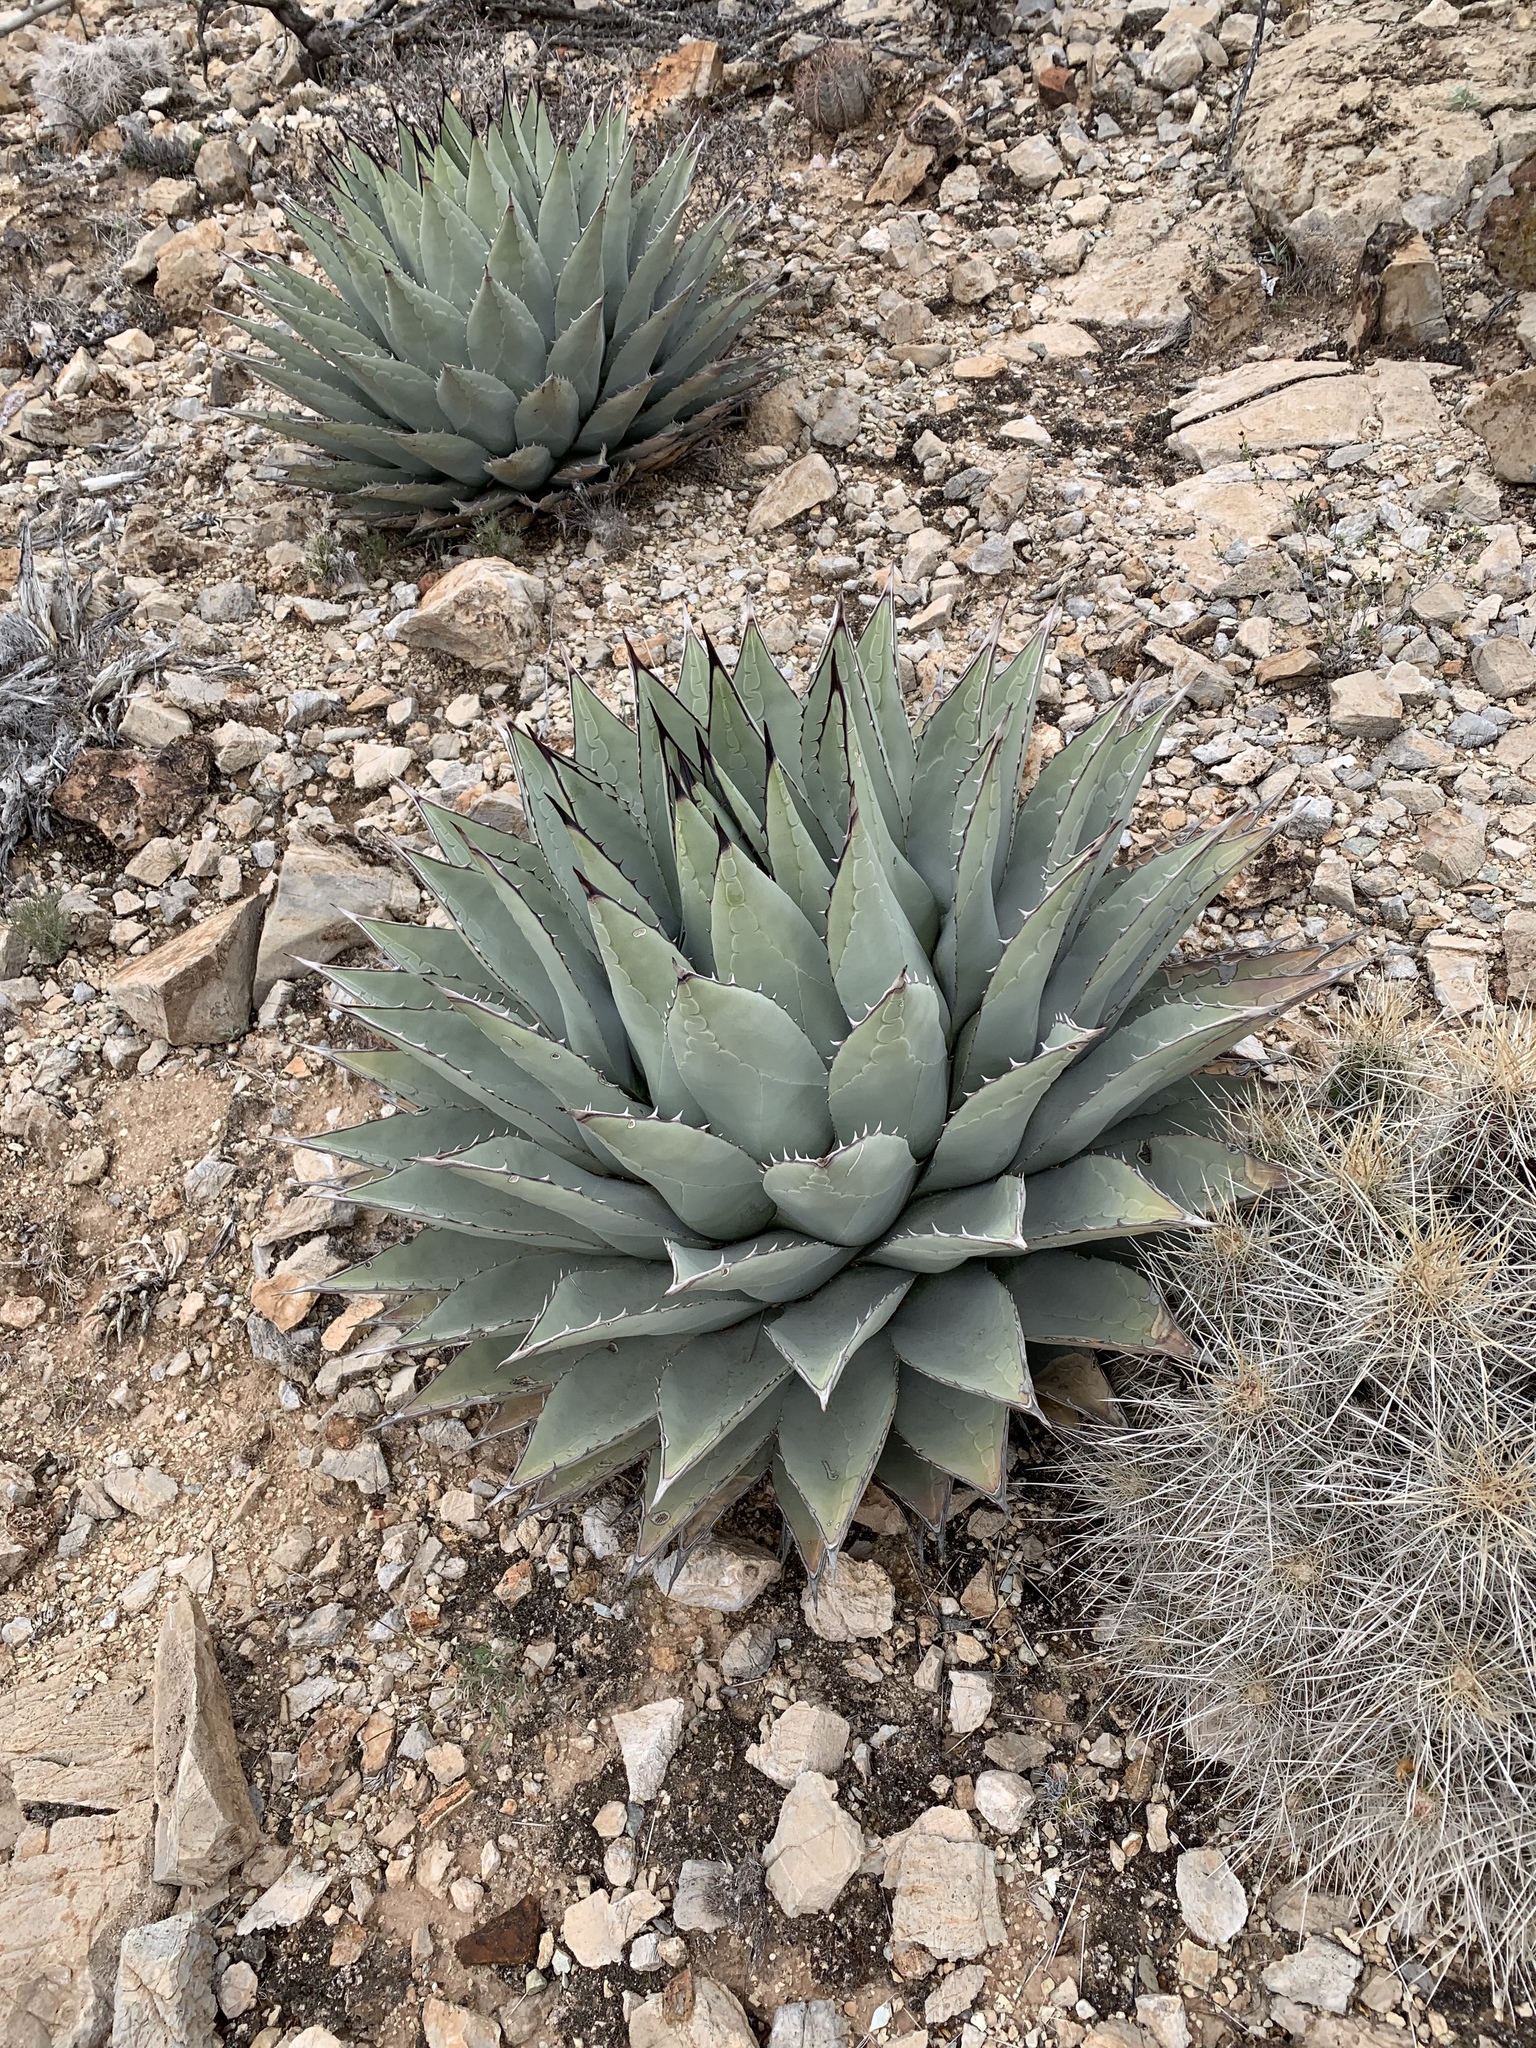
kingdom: Plantae
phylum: Tracheophyta
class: Liliopsida
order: Asparagales
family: Asparagaceae
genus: Agave
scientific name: Agave parryi
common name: Parry's agave
